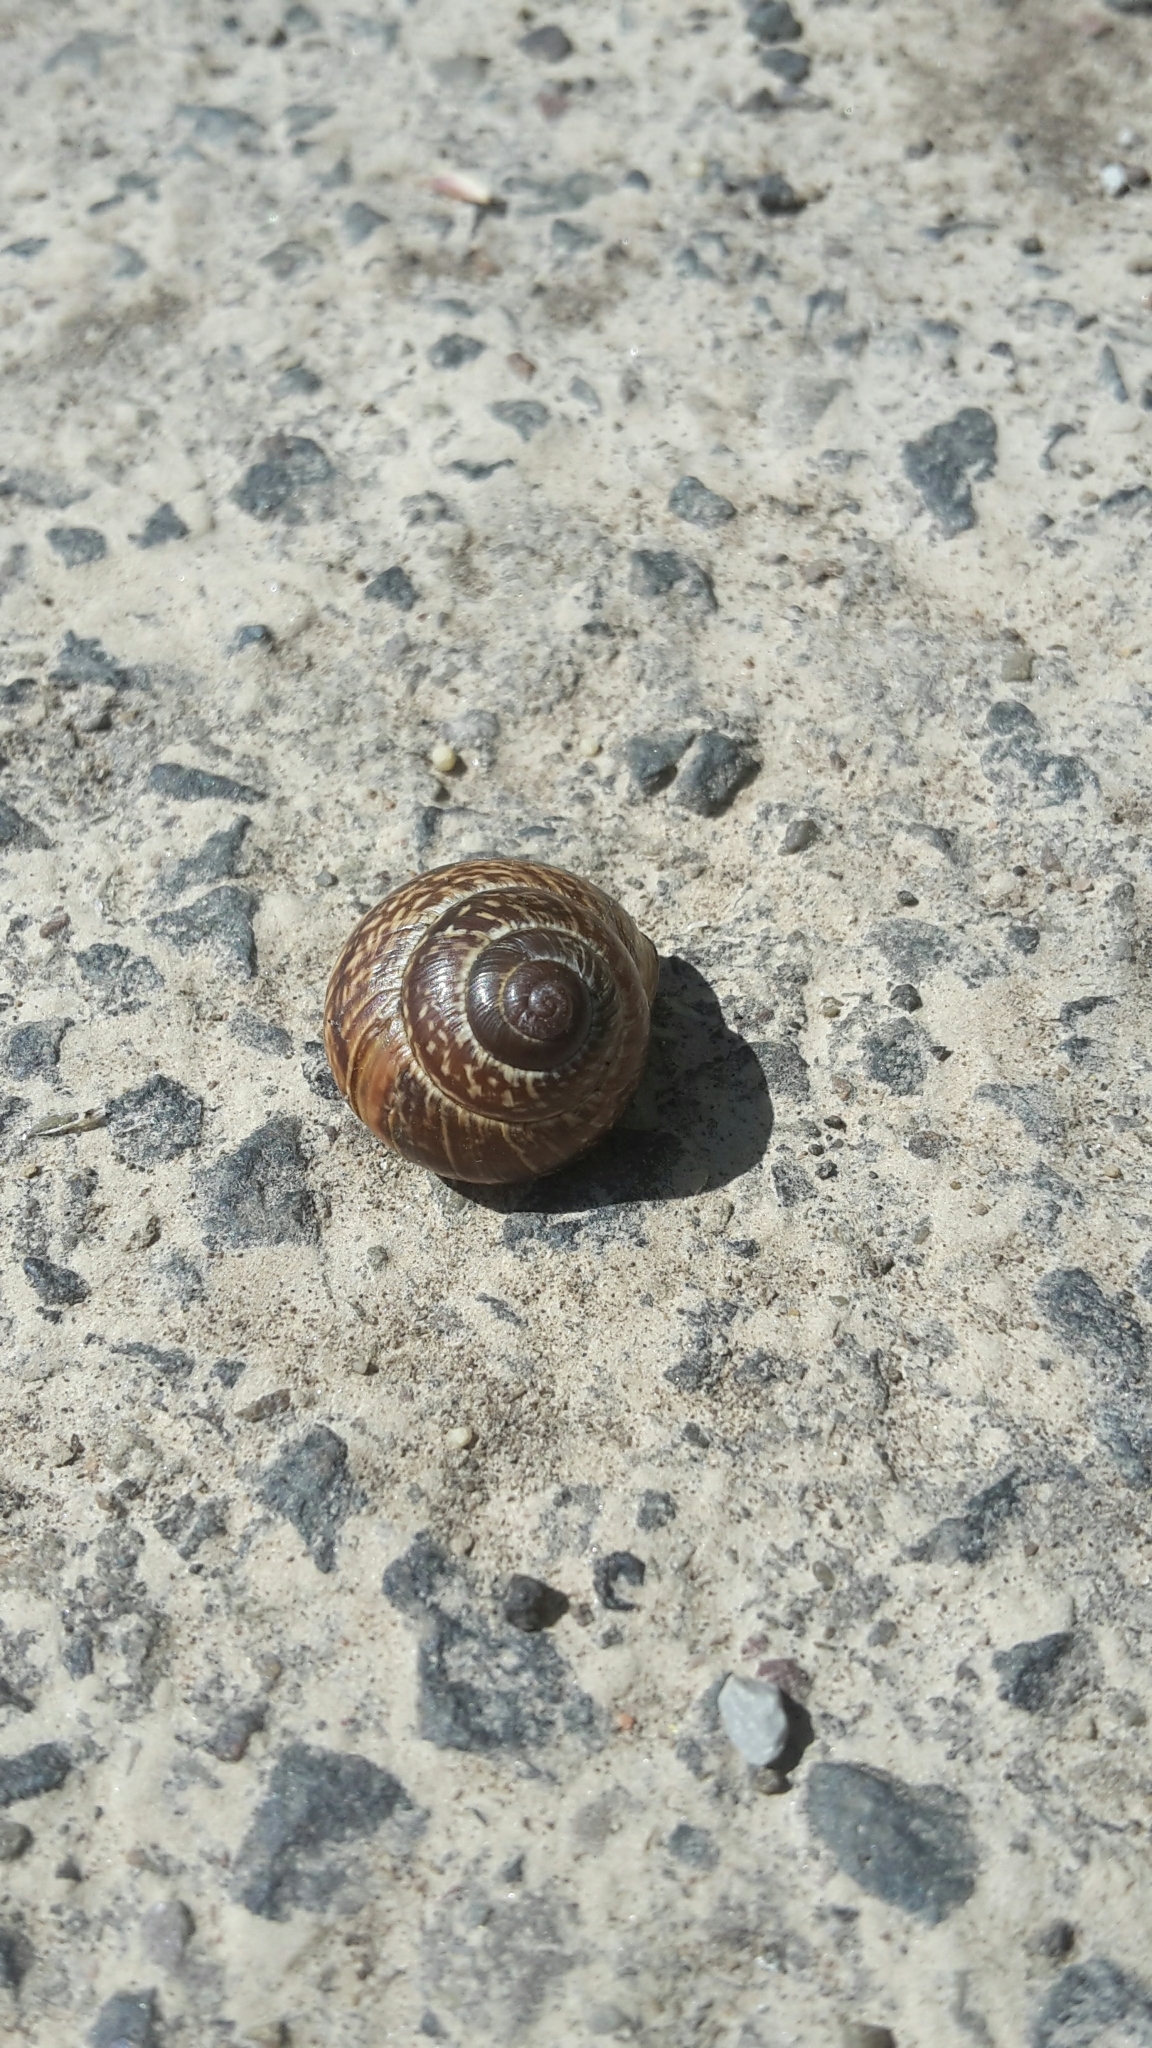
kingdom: Animalia
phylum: Mollusca
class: Gastropoda
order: Stylommatophora
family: Helicidae
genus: Arianta
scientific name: Arianta arbustorum
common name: Copse snail
